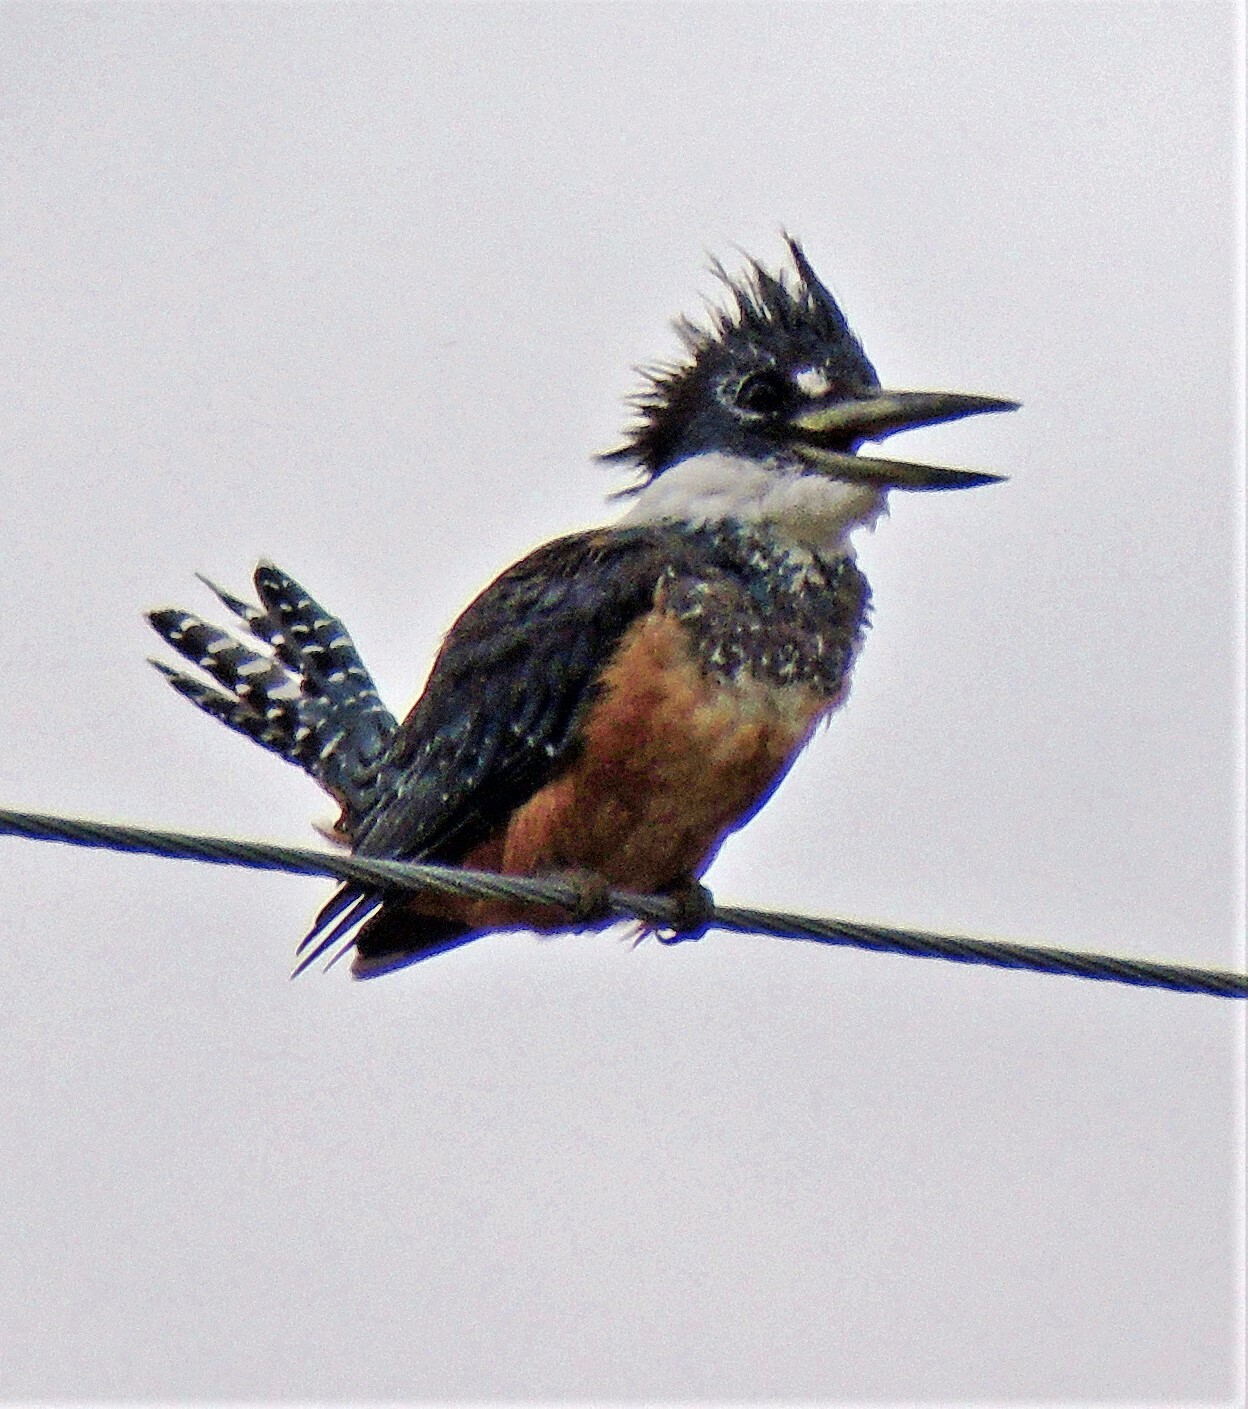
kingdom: Animalia
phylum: Chordata
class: Aves
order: Coraciiformes
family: Alcedinidae
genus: Megaceryle
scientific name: Megaceryle torquata
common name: Ringed kingfisher
